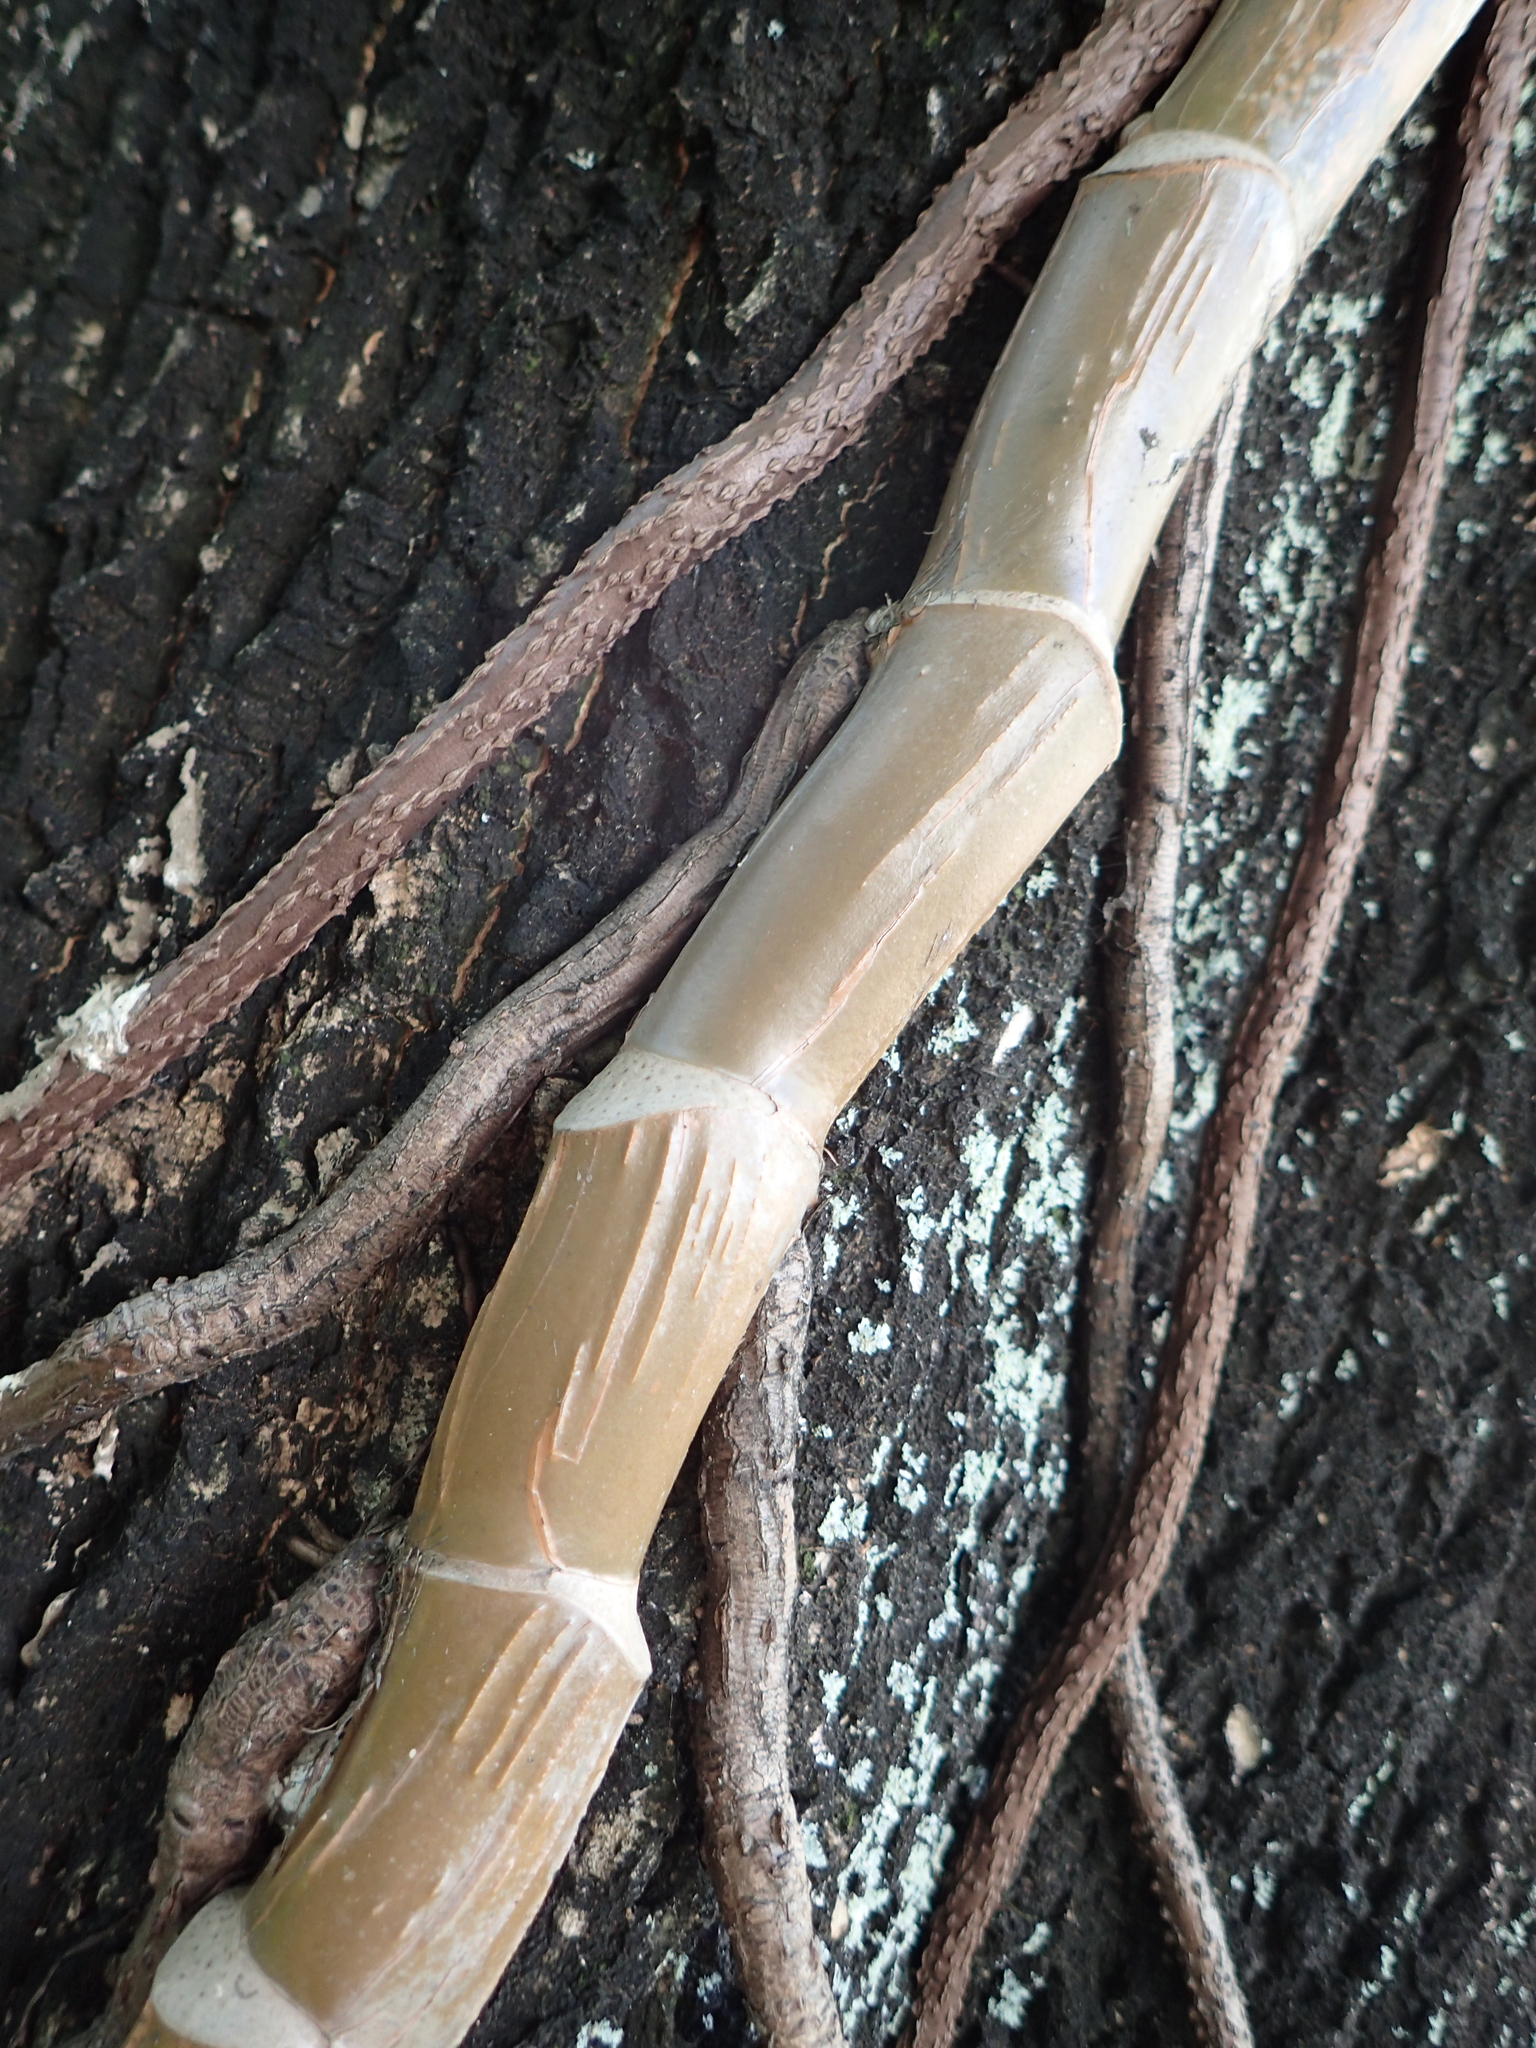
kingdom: Plantae
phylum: Tracheophyta
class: Liliopsida
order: Alismatales
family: Araceae
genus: Epipremnum
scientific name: Epipremnum aureum
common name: Golden hunter's-robe
